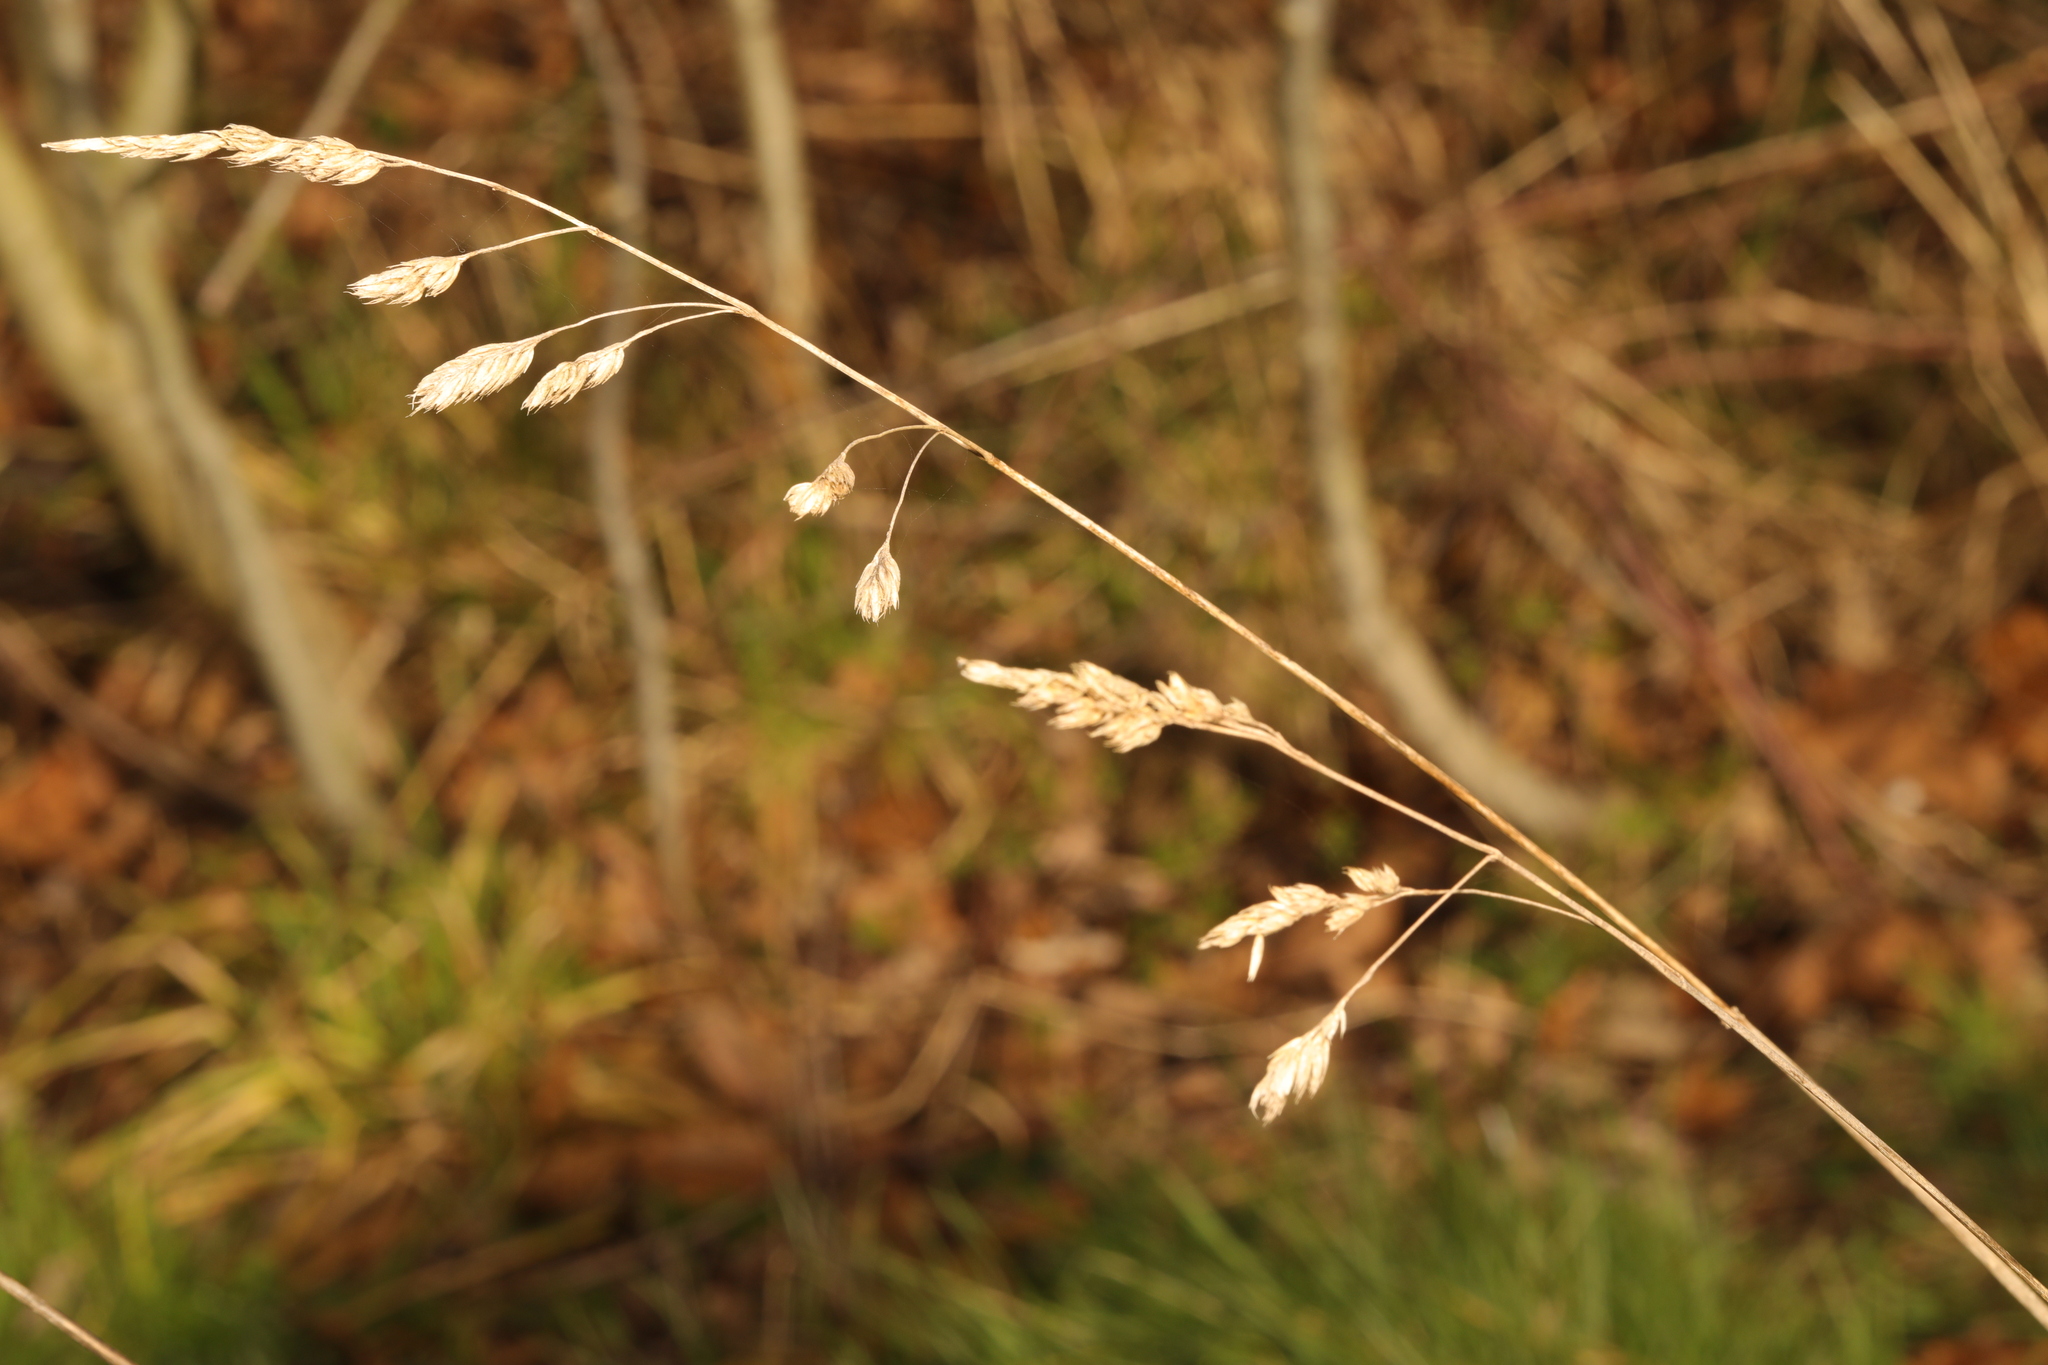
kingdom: Plantae
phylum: Tracheophyta
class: Liliopsida
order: Poales
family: Poaceae
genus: Dactylis
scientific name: Dactylis glomerata
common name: Orchardgrass
